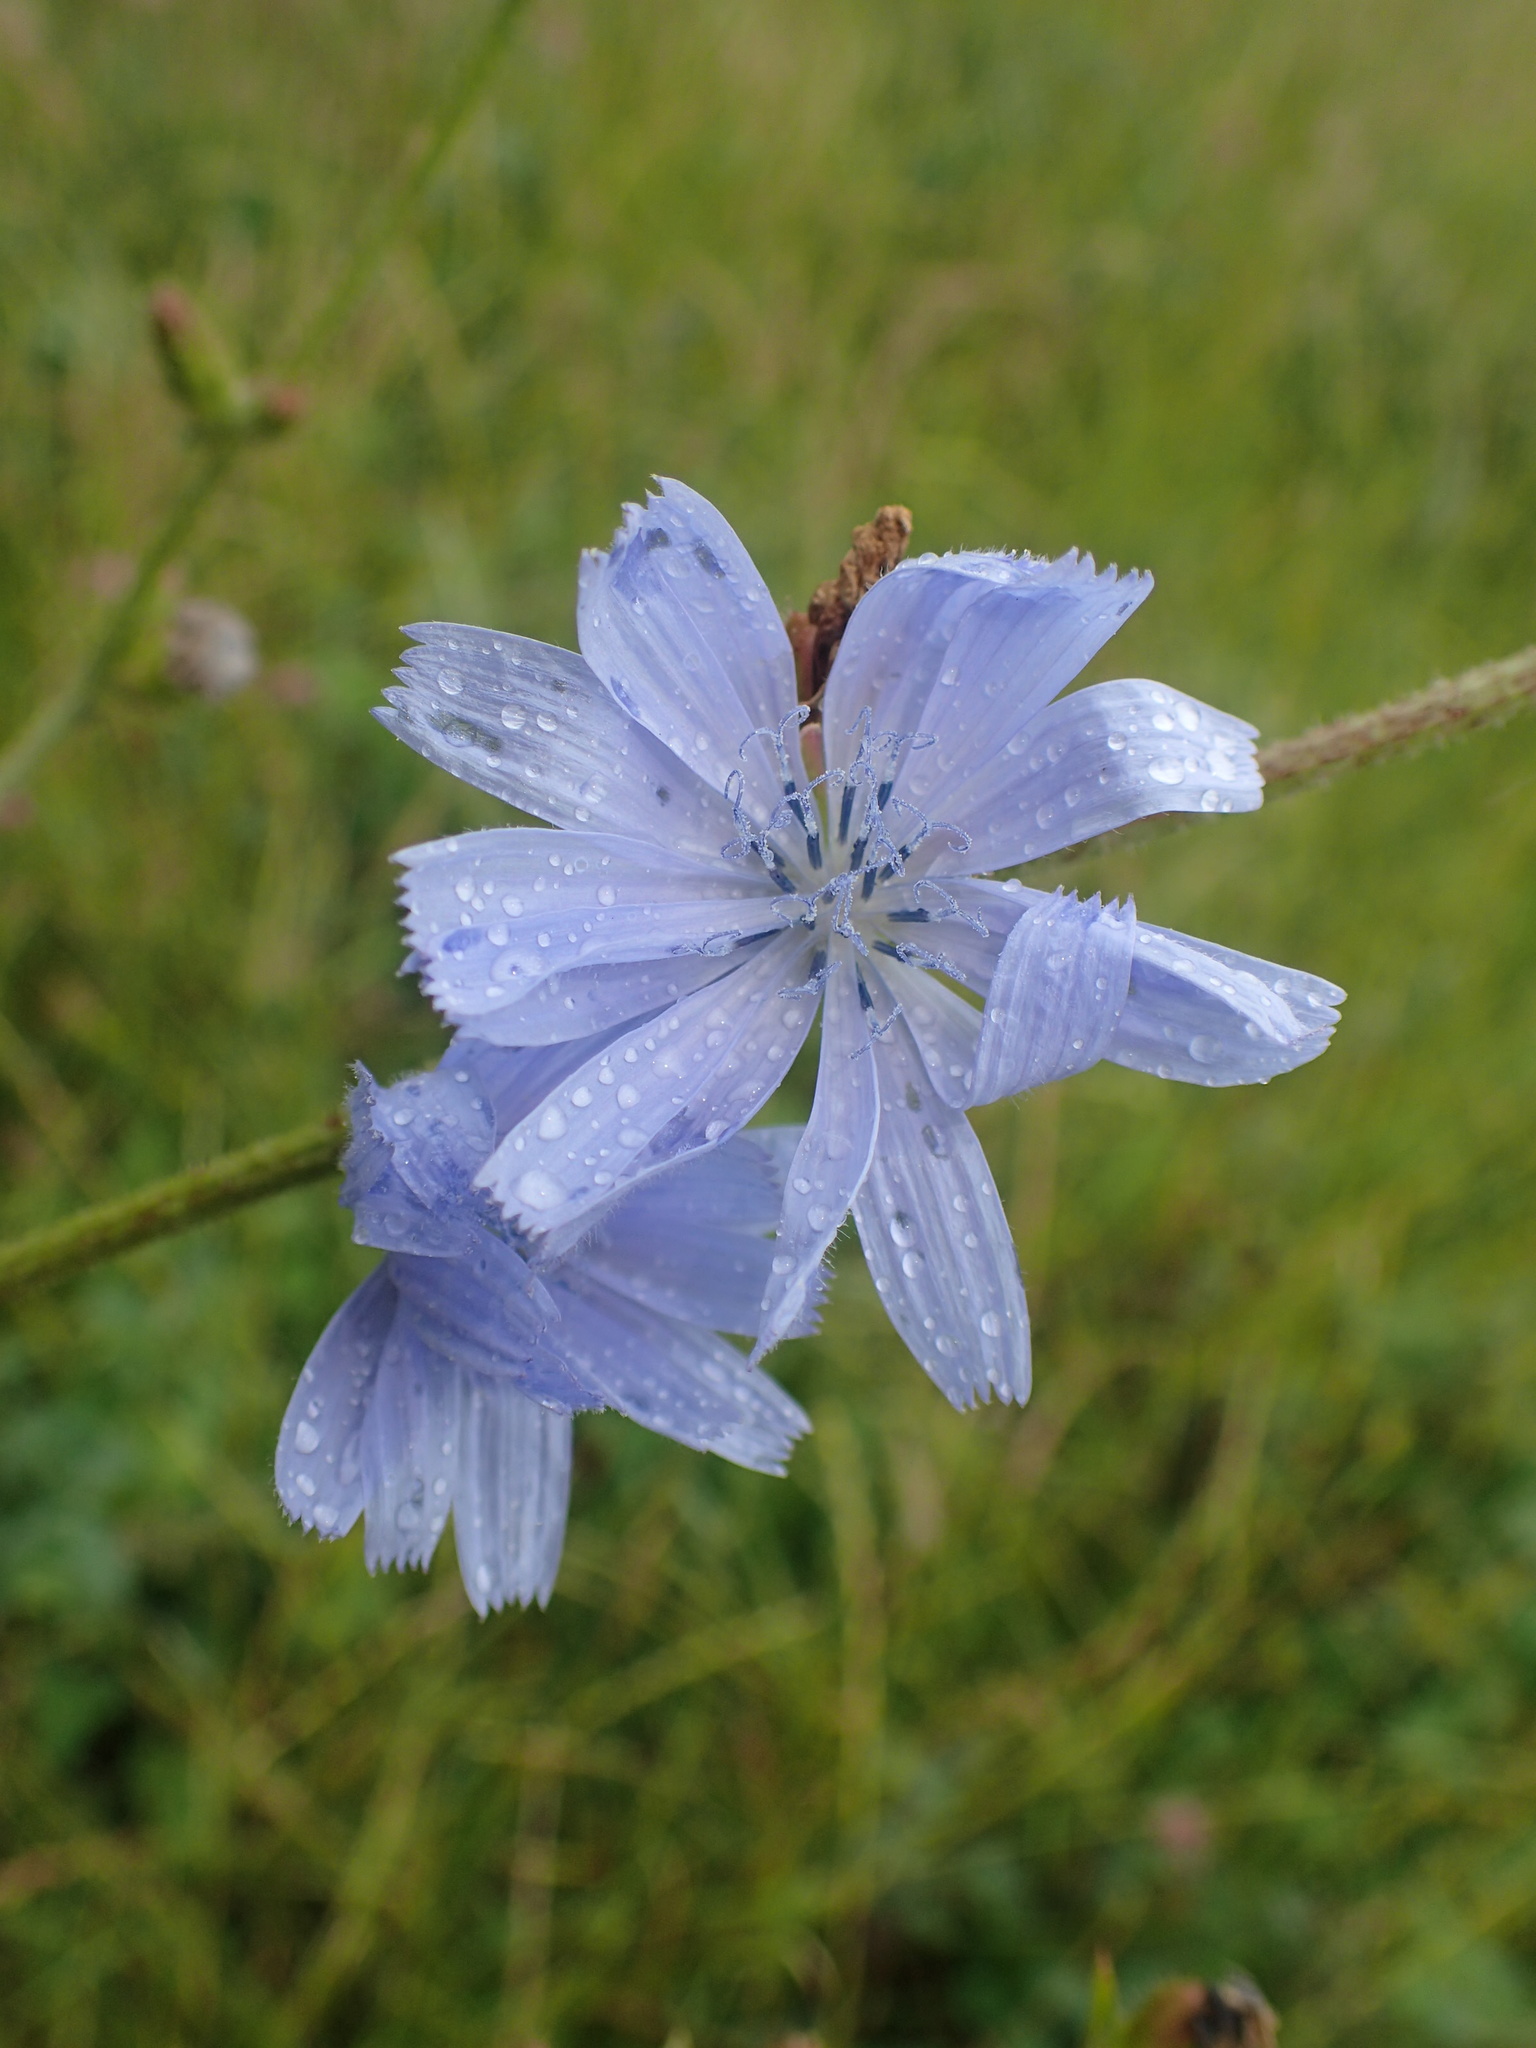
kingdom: Plantae
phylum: Tracheophyta
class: Magnoliopsida
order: Asterales
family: Asteraceae
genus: Cichorium
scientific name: Cichorium intybus
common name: Chicory
